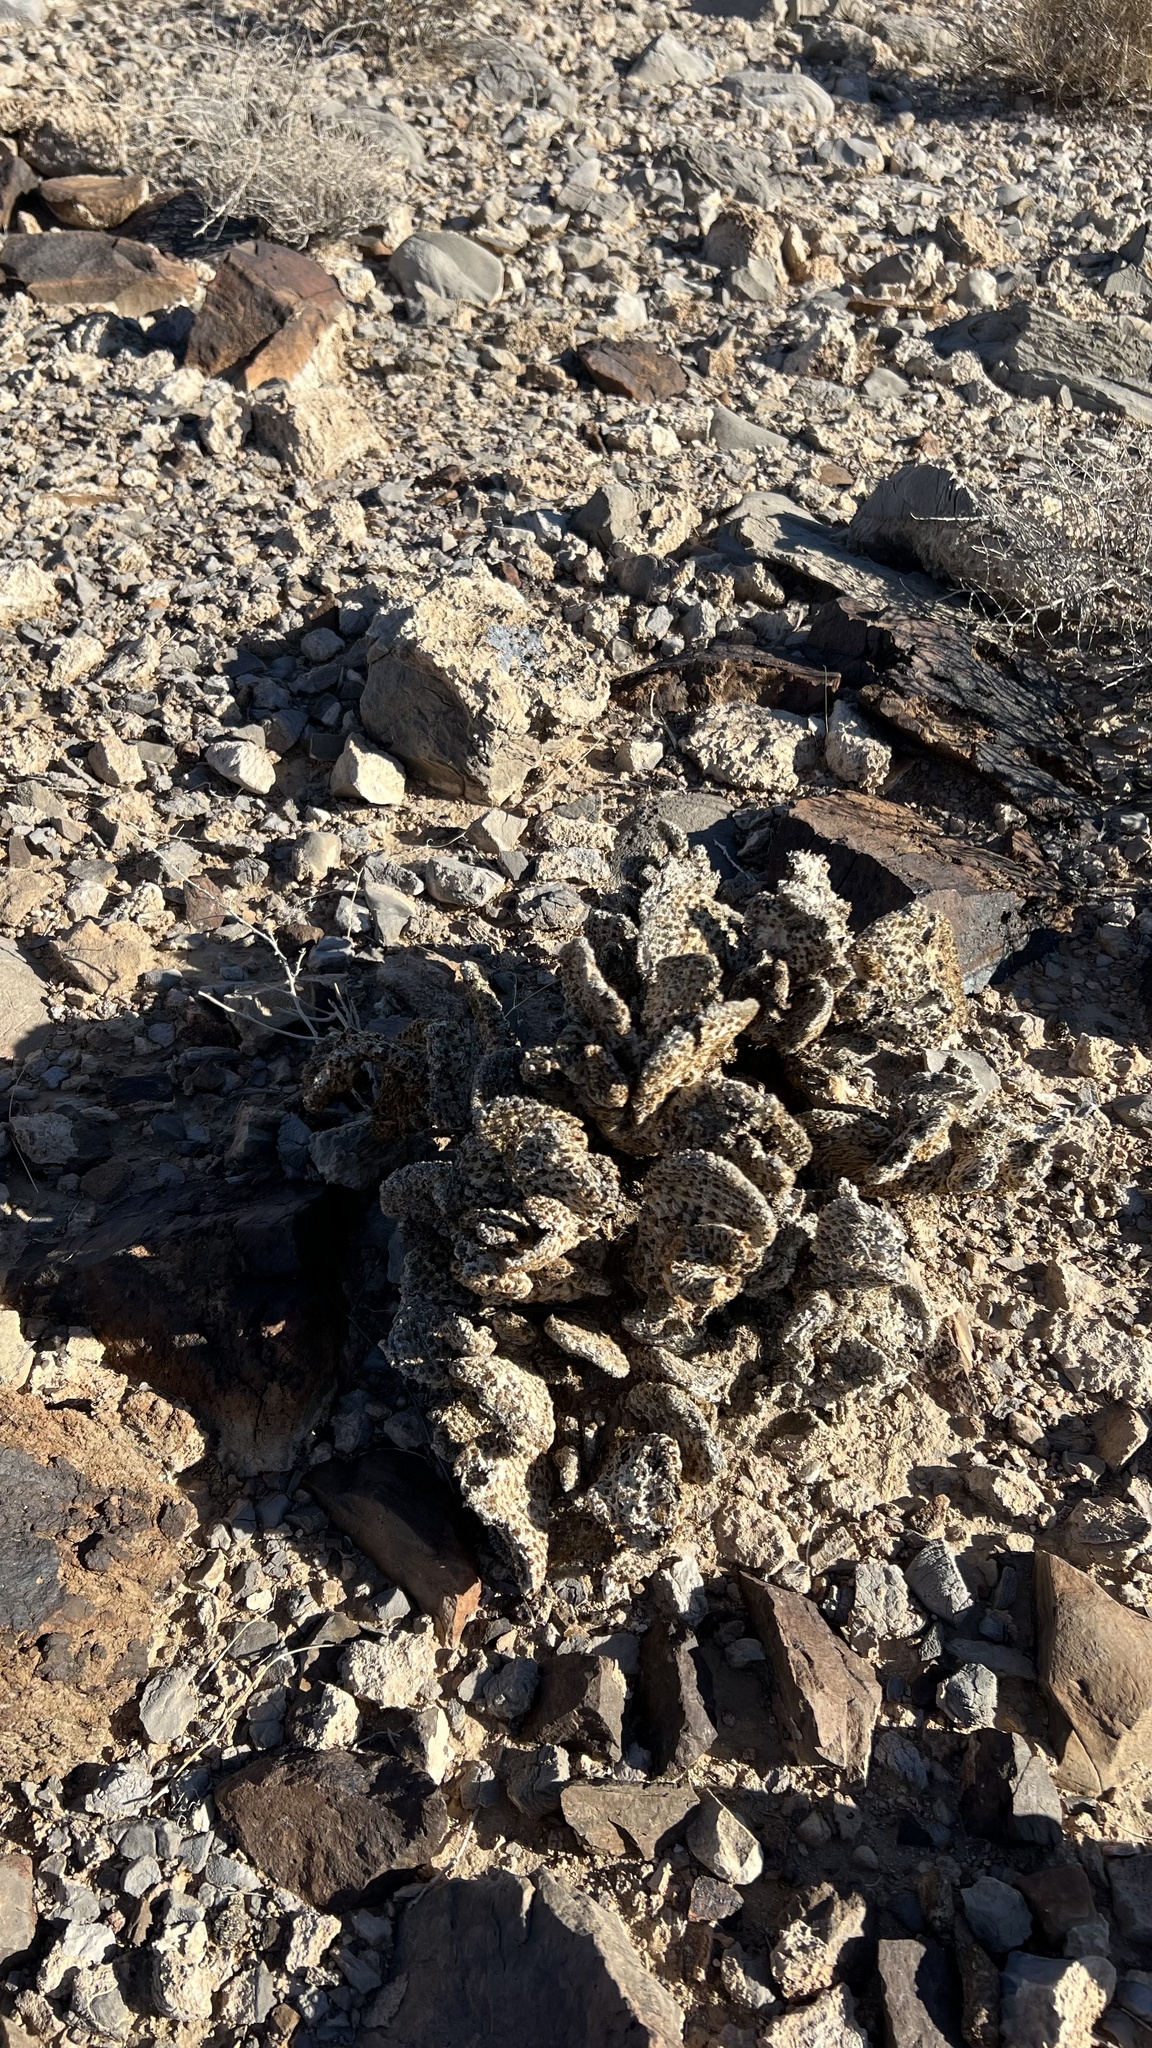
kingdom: Plantae
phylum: Tracheophyta
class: Magnoliopsida
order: Caryophyllales
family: Cactaceae
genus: Opuntia
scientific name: Opuntia basilaris
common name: Beavertail prickly-pear
